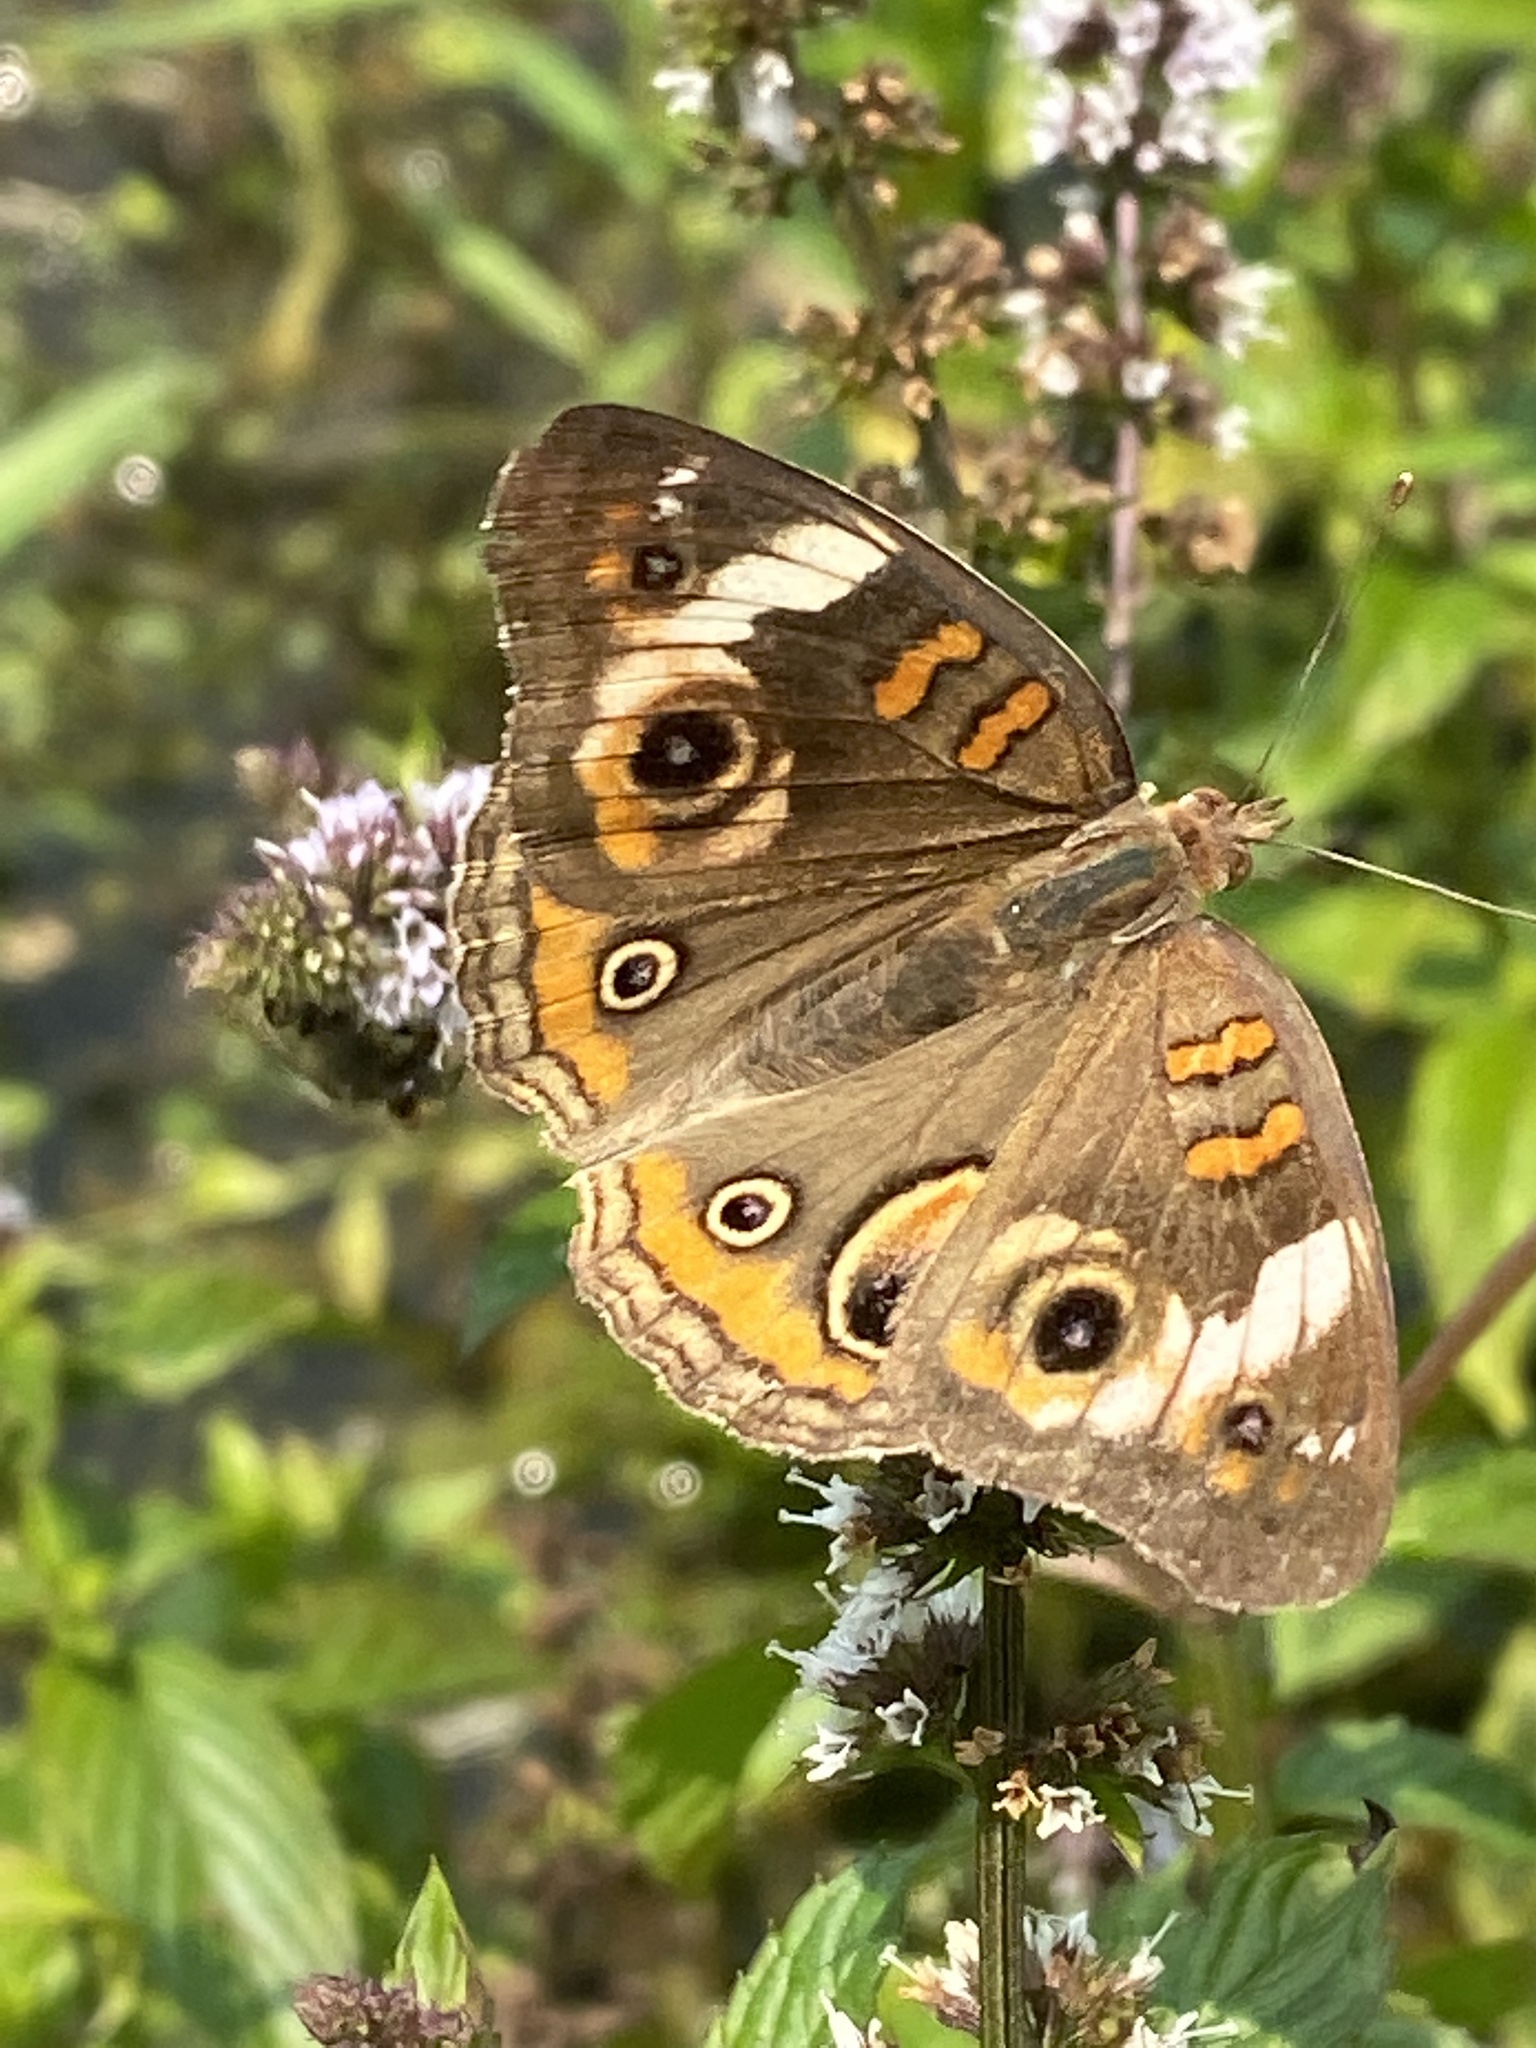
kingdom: Animalia
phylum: Arthropoda
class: Insecta
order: Lepidoptera
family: Nymphalidae
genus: Junonia
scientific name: Junonia coenia
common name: Common buckeye
